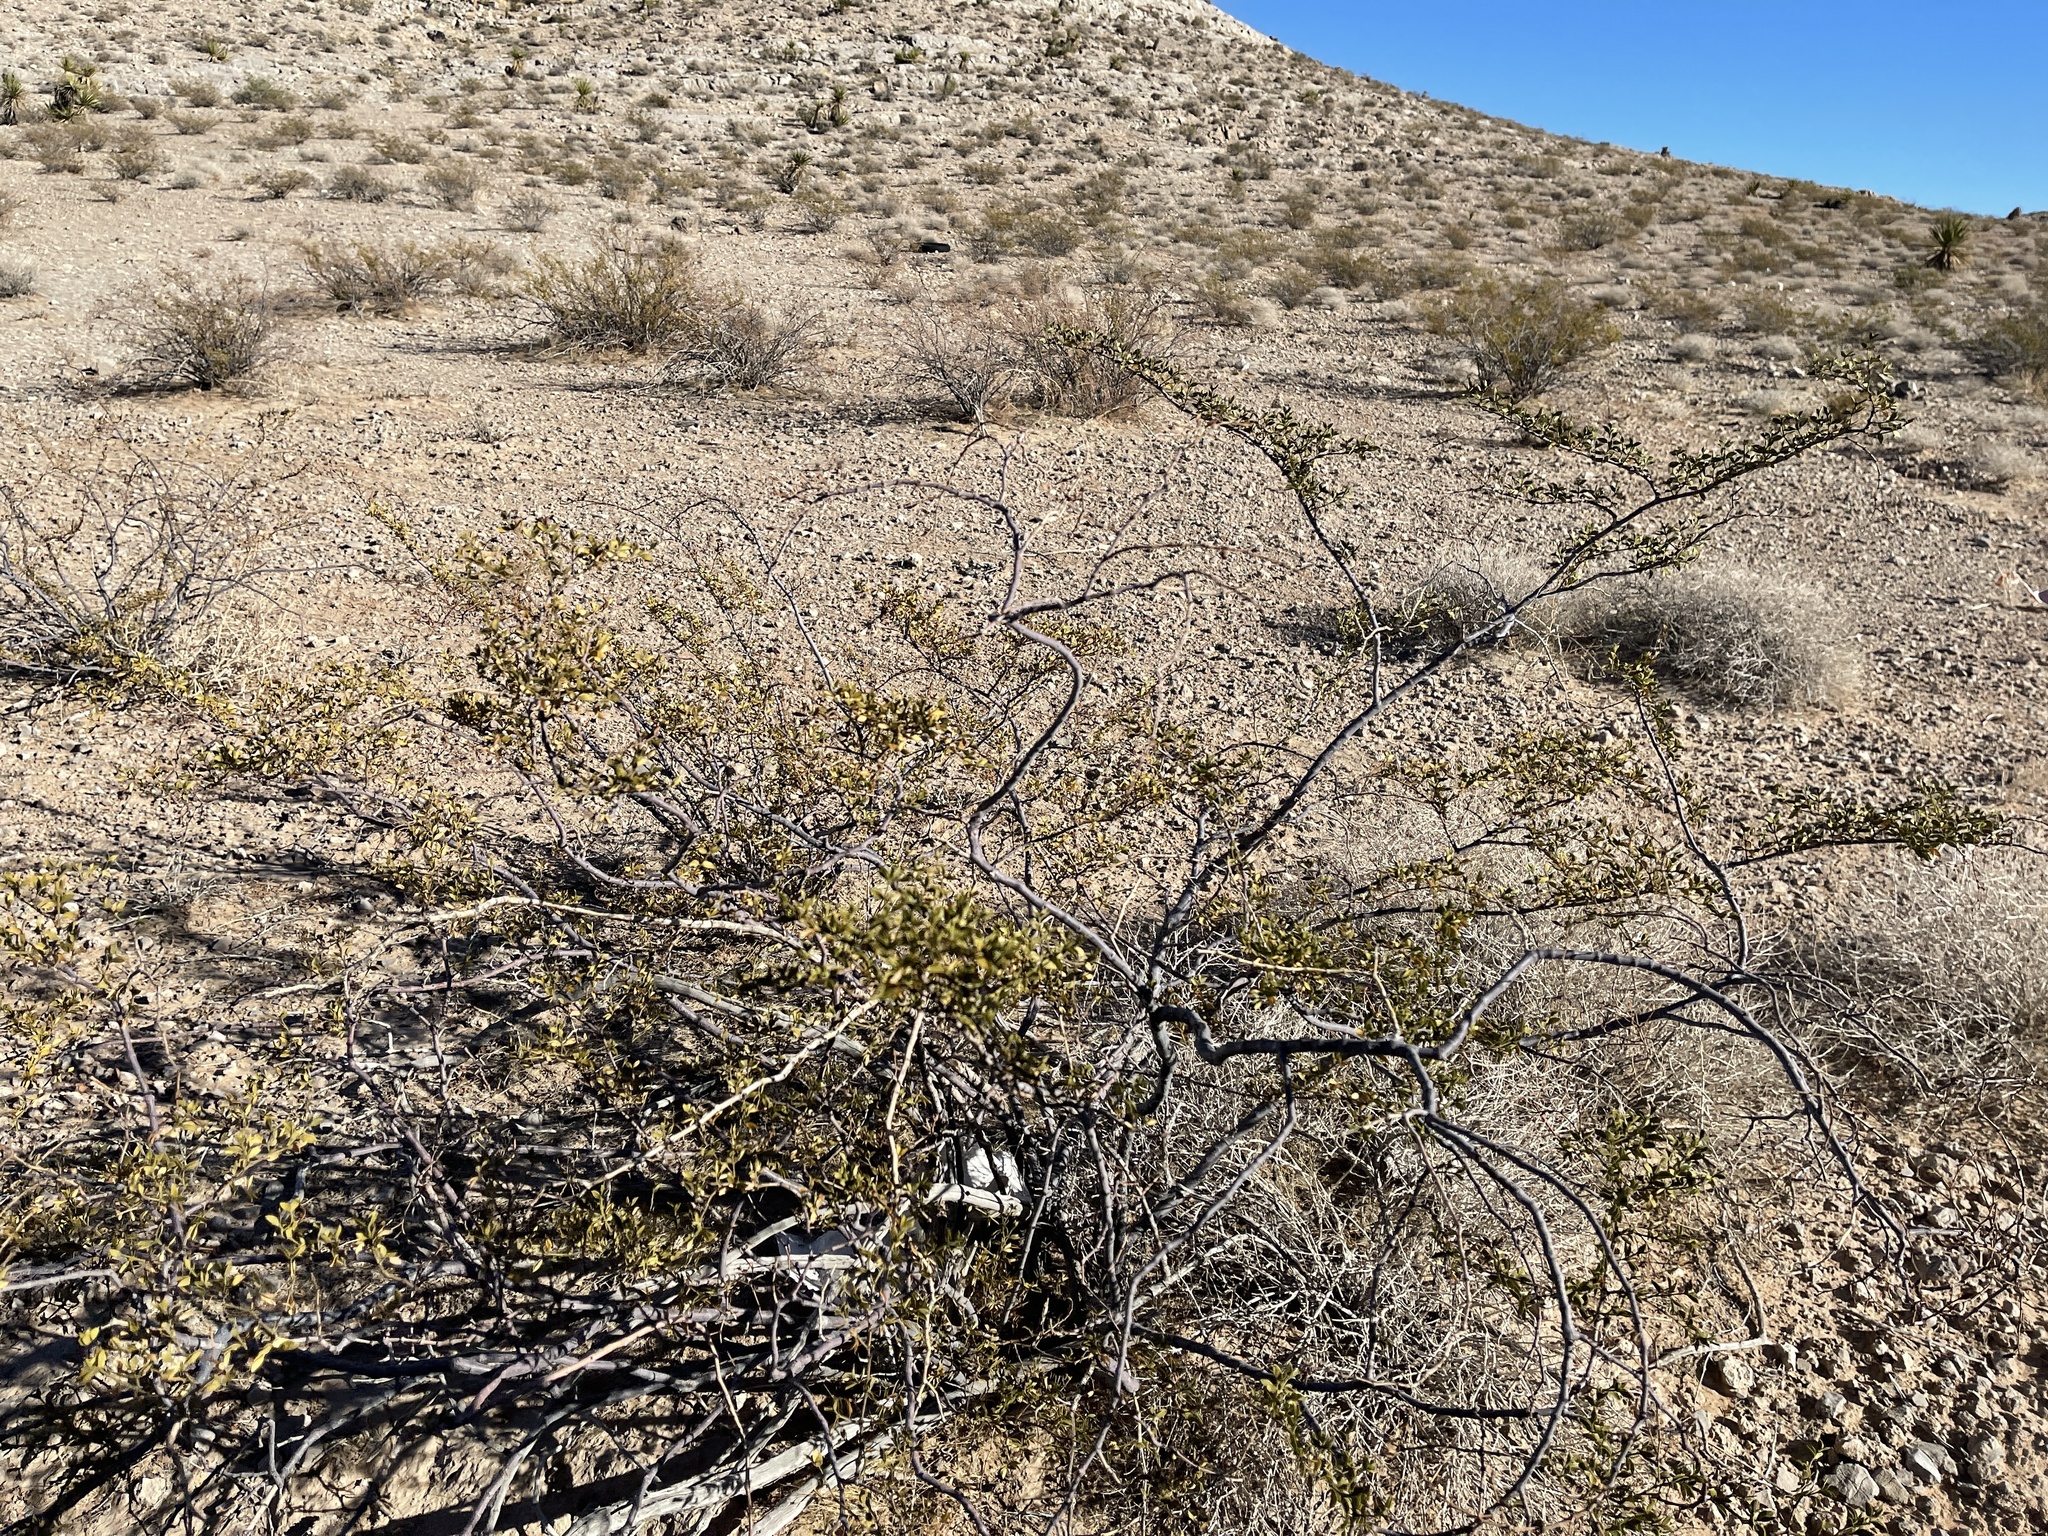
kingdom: Plantae
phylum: Tracheophyta
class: Magnoliopsida
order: Zygophyllales
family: Zygophyllaceae
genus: Larrea
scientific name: Larrea tridentata
